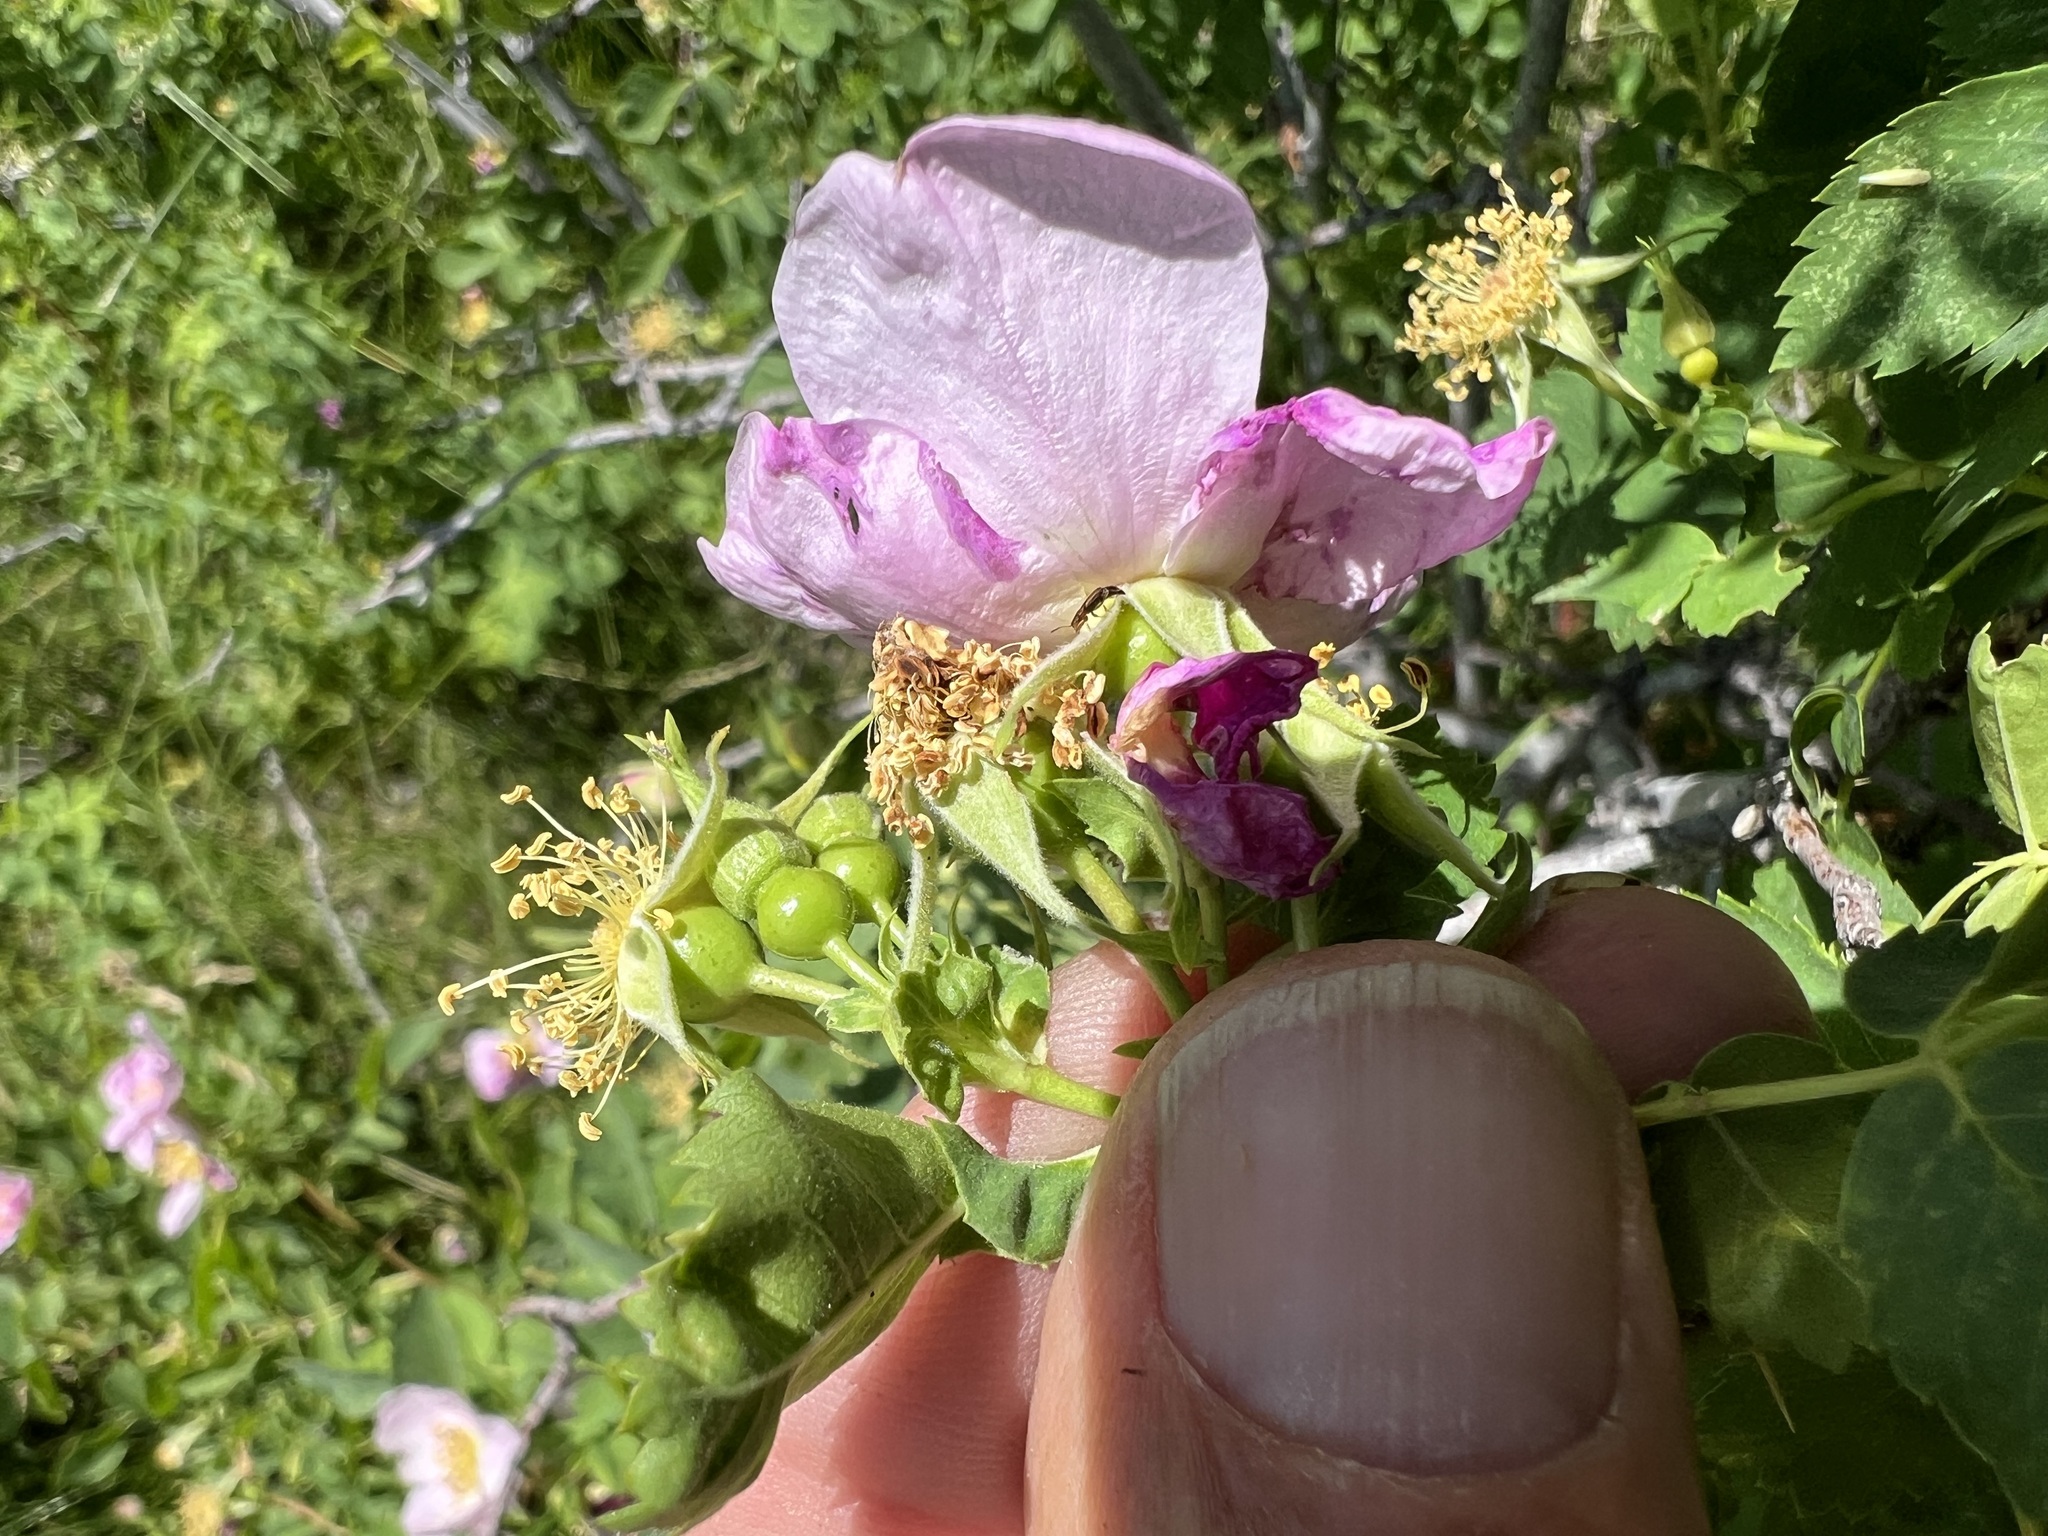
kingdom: Plantae
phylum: Tracheophyta
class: Magnoliopsida
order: Rosales
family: Rosaceae
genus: Rosa
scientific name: Rosa woodsii
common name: Woods's rose
